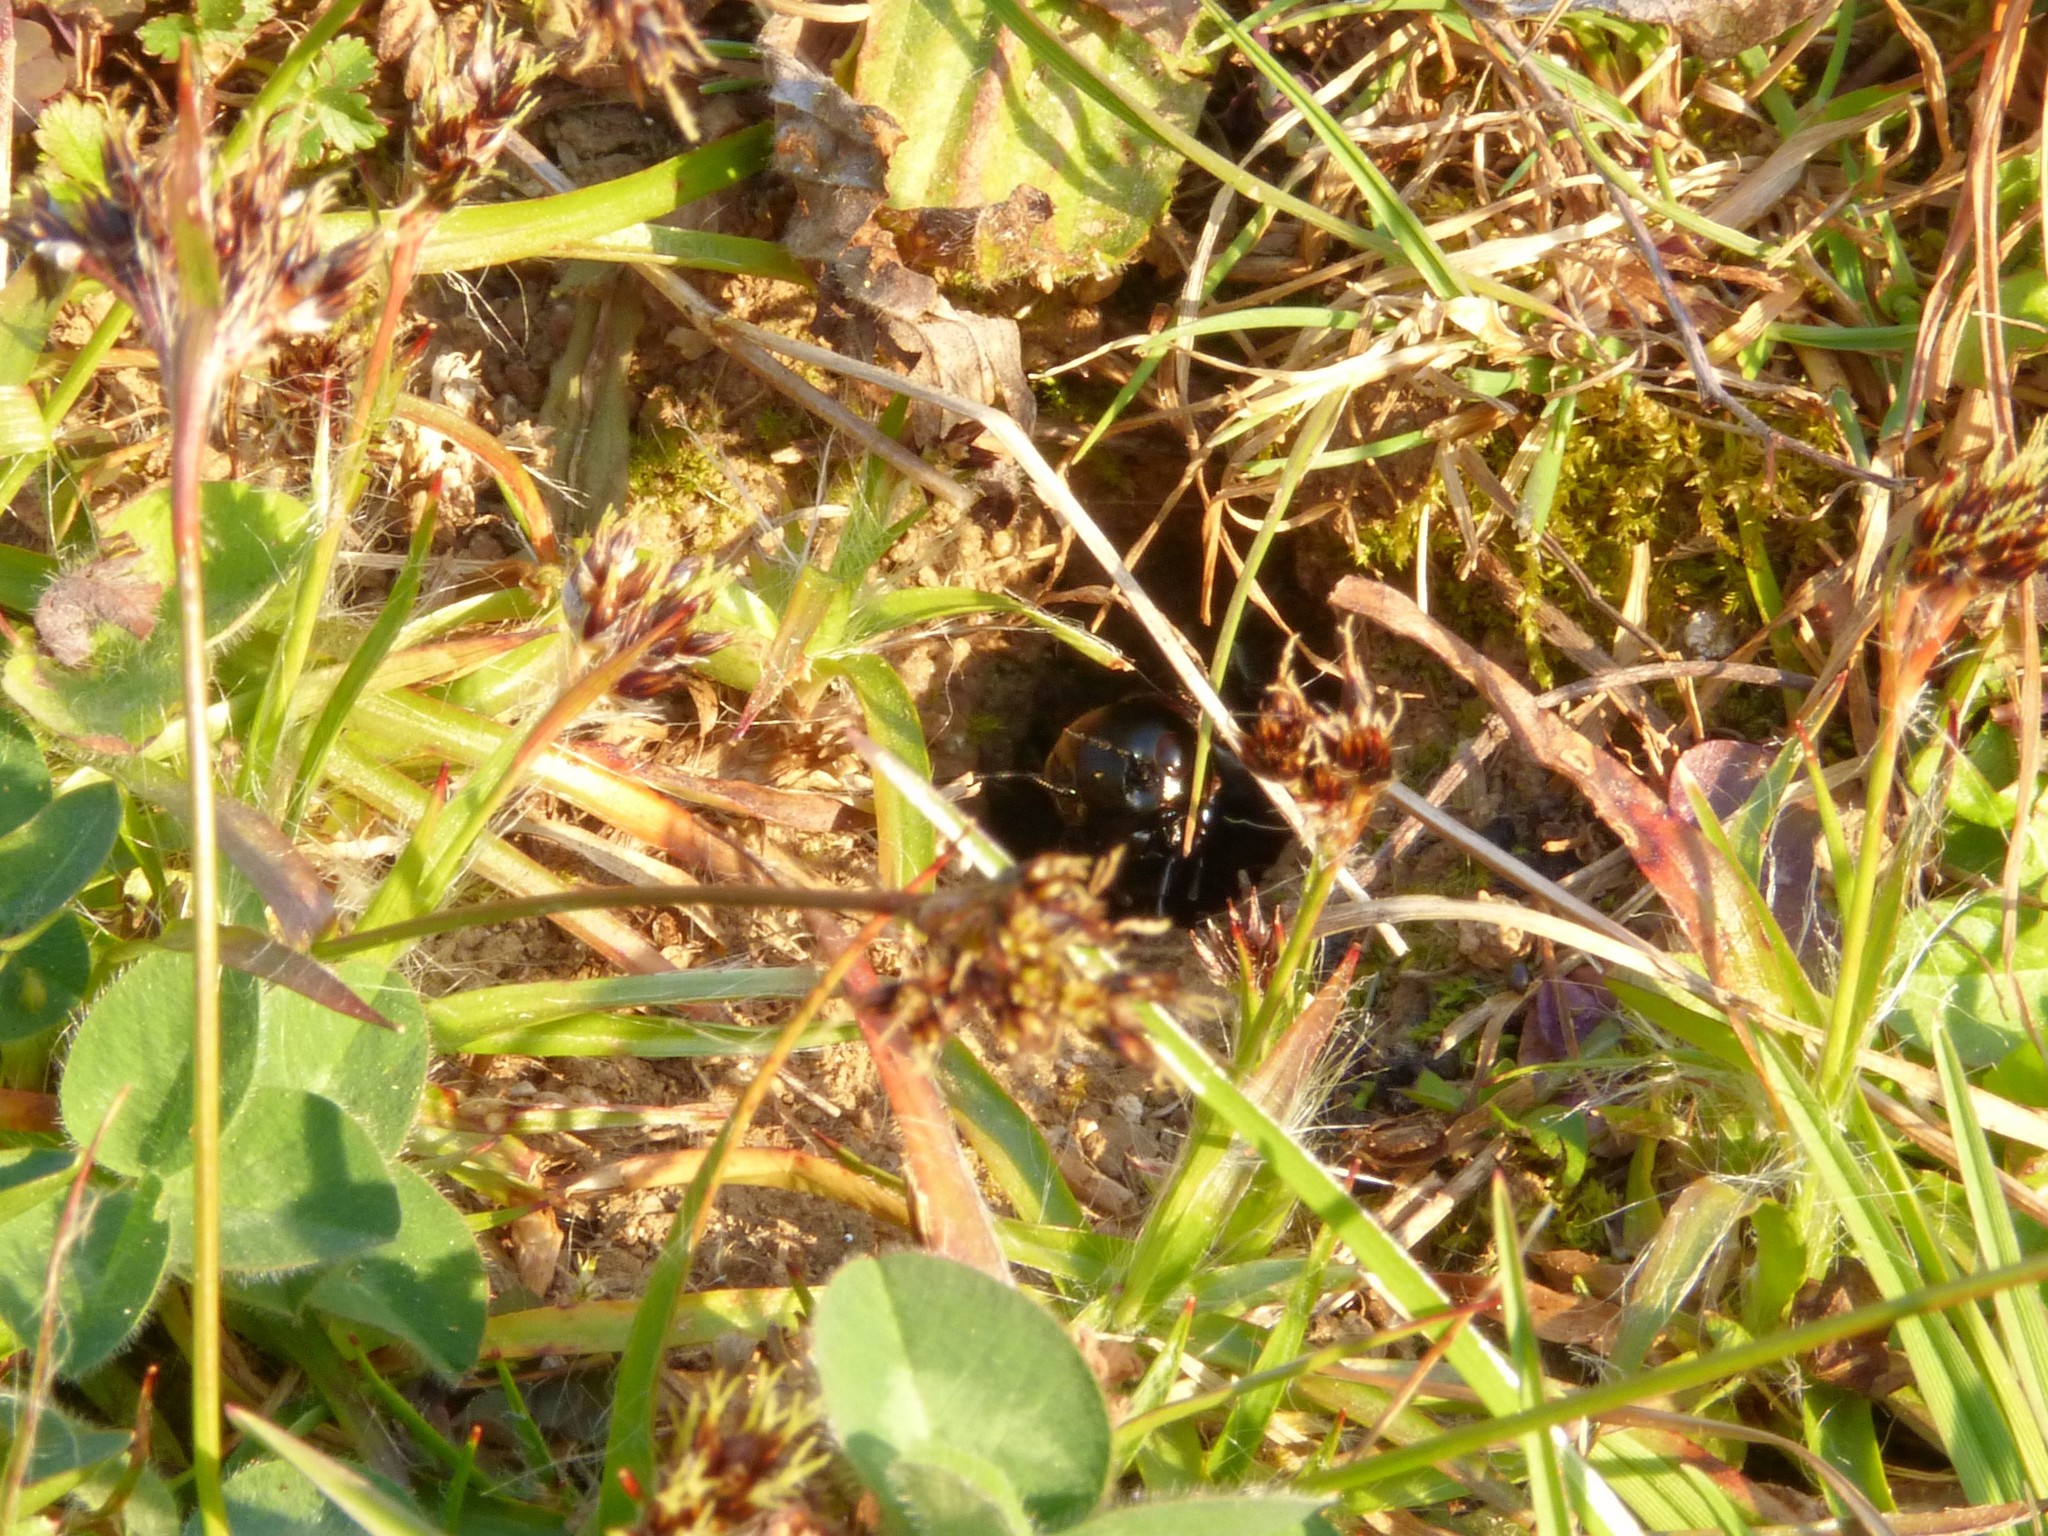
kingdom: Animalia
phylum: Arthropoda
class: Insecta
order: Orthoptera
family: Gryllidae
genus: Gryllus
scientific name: Gryllus campestris
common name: Field cricket
